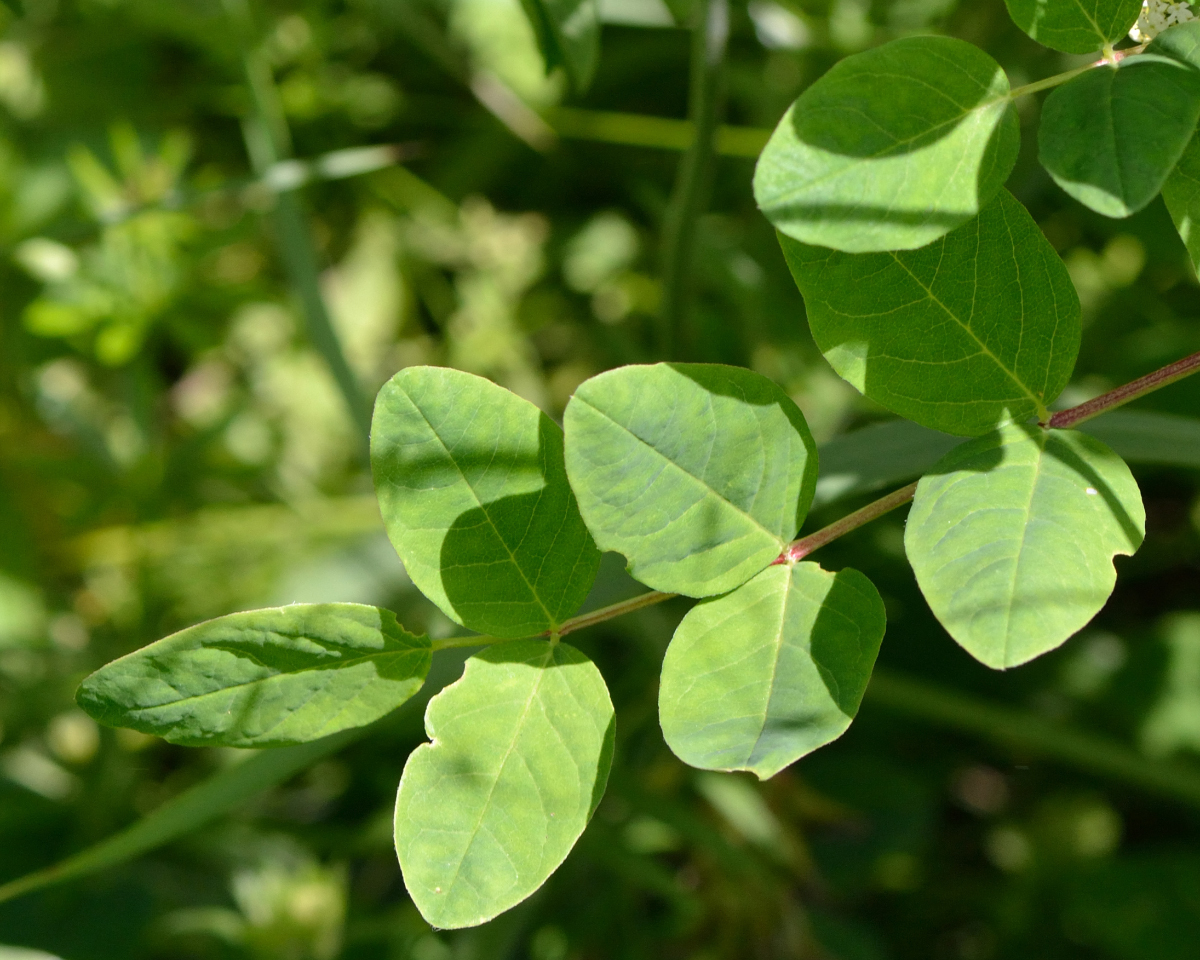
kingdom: Plantae
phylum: Tracheophyta
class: Magnoliopsida
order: Fabales
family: Fabaceae
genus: Astragalus
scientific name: Astragalus glycyphyllos
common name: Wild liquorice
